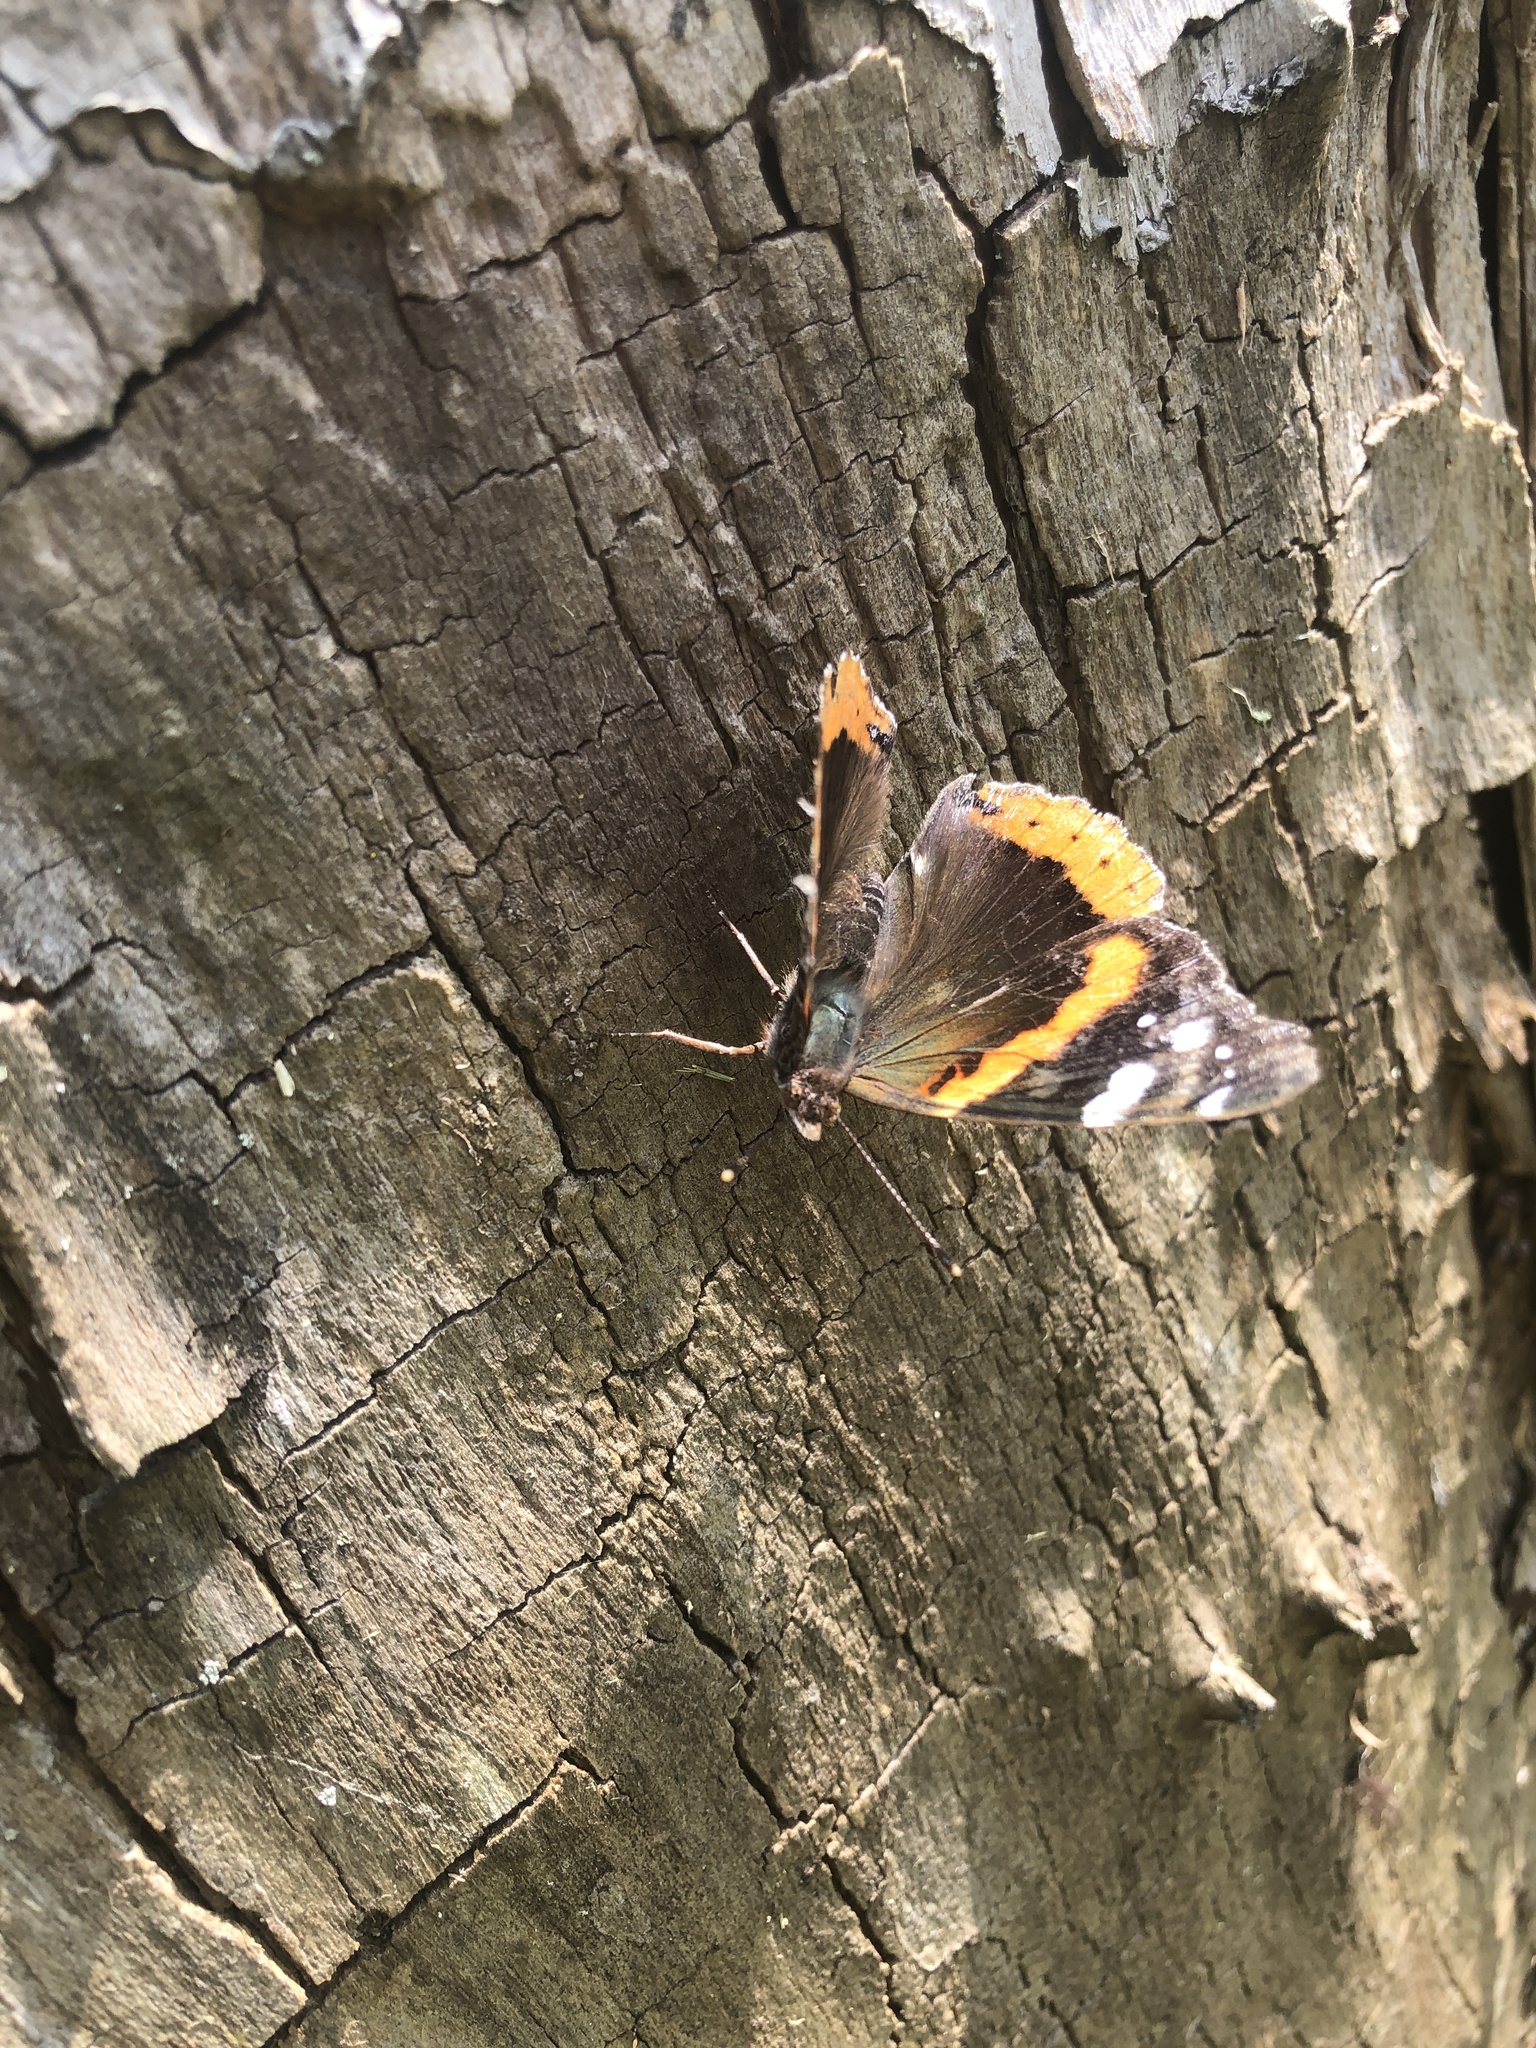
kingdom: Animalia
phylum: Arthropoda
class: Insecta
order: Lepidoptera
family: Nymphalidae
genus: Vanessa
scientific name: Vanessa atalanta
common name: Red admiral
